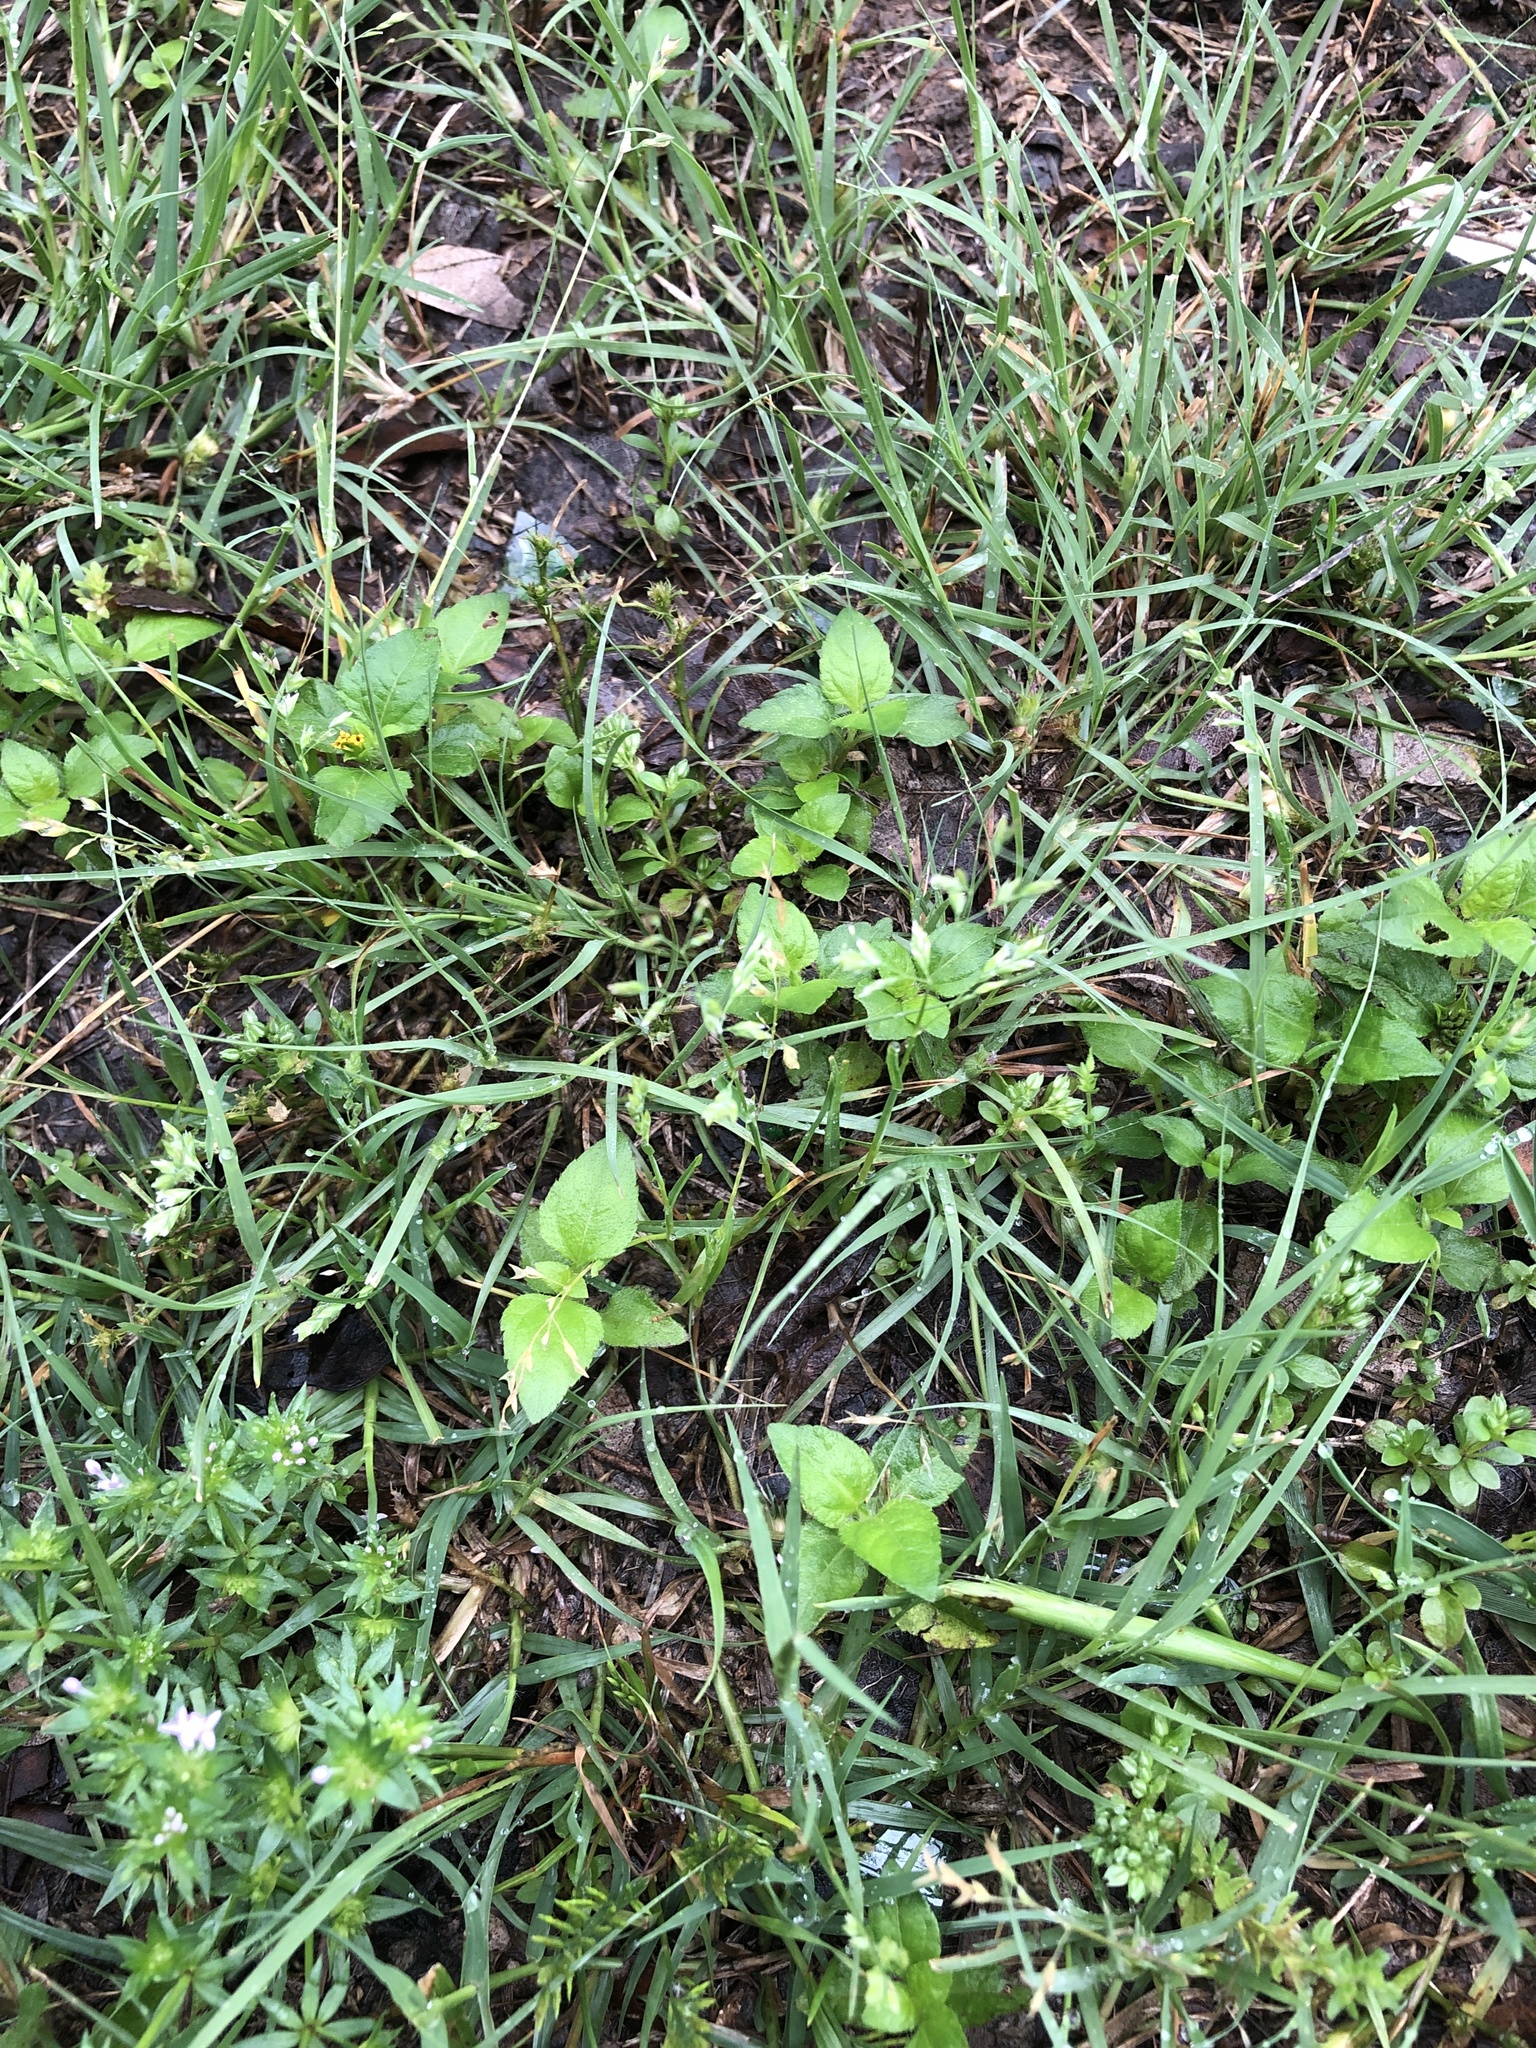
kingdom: Plantae
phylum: Tracheophyta
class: Liliopsida
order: Poales
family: Poaceae
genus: Poa
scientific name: Poa annua
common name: Annual bluegrass
